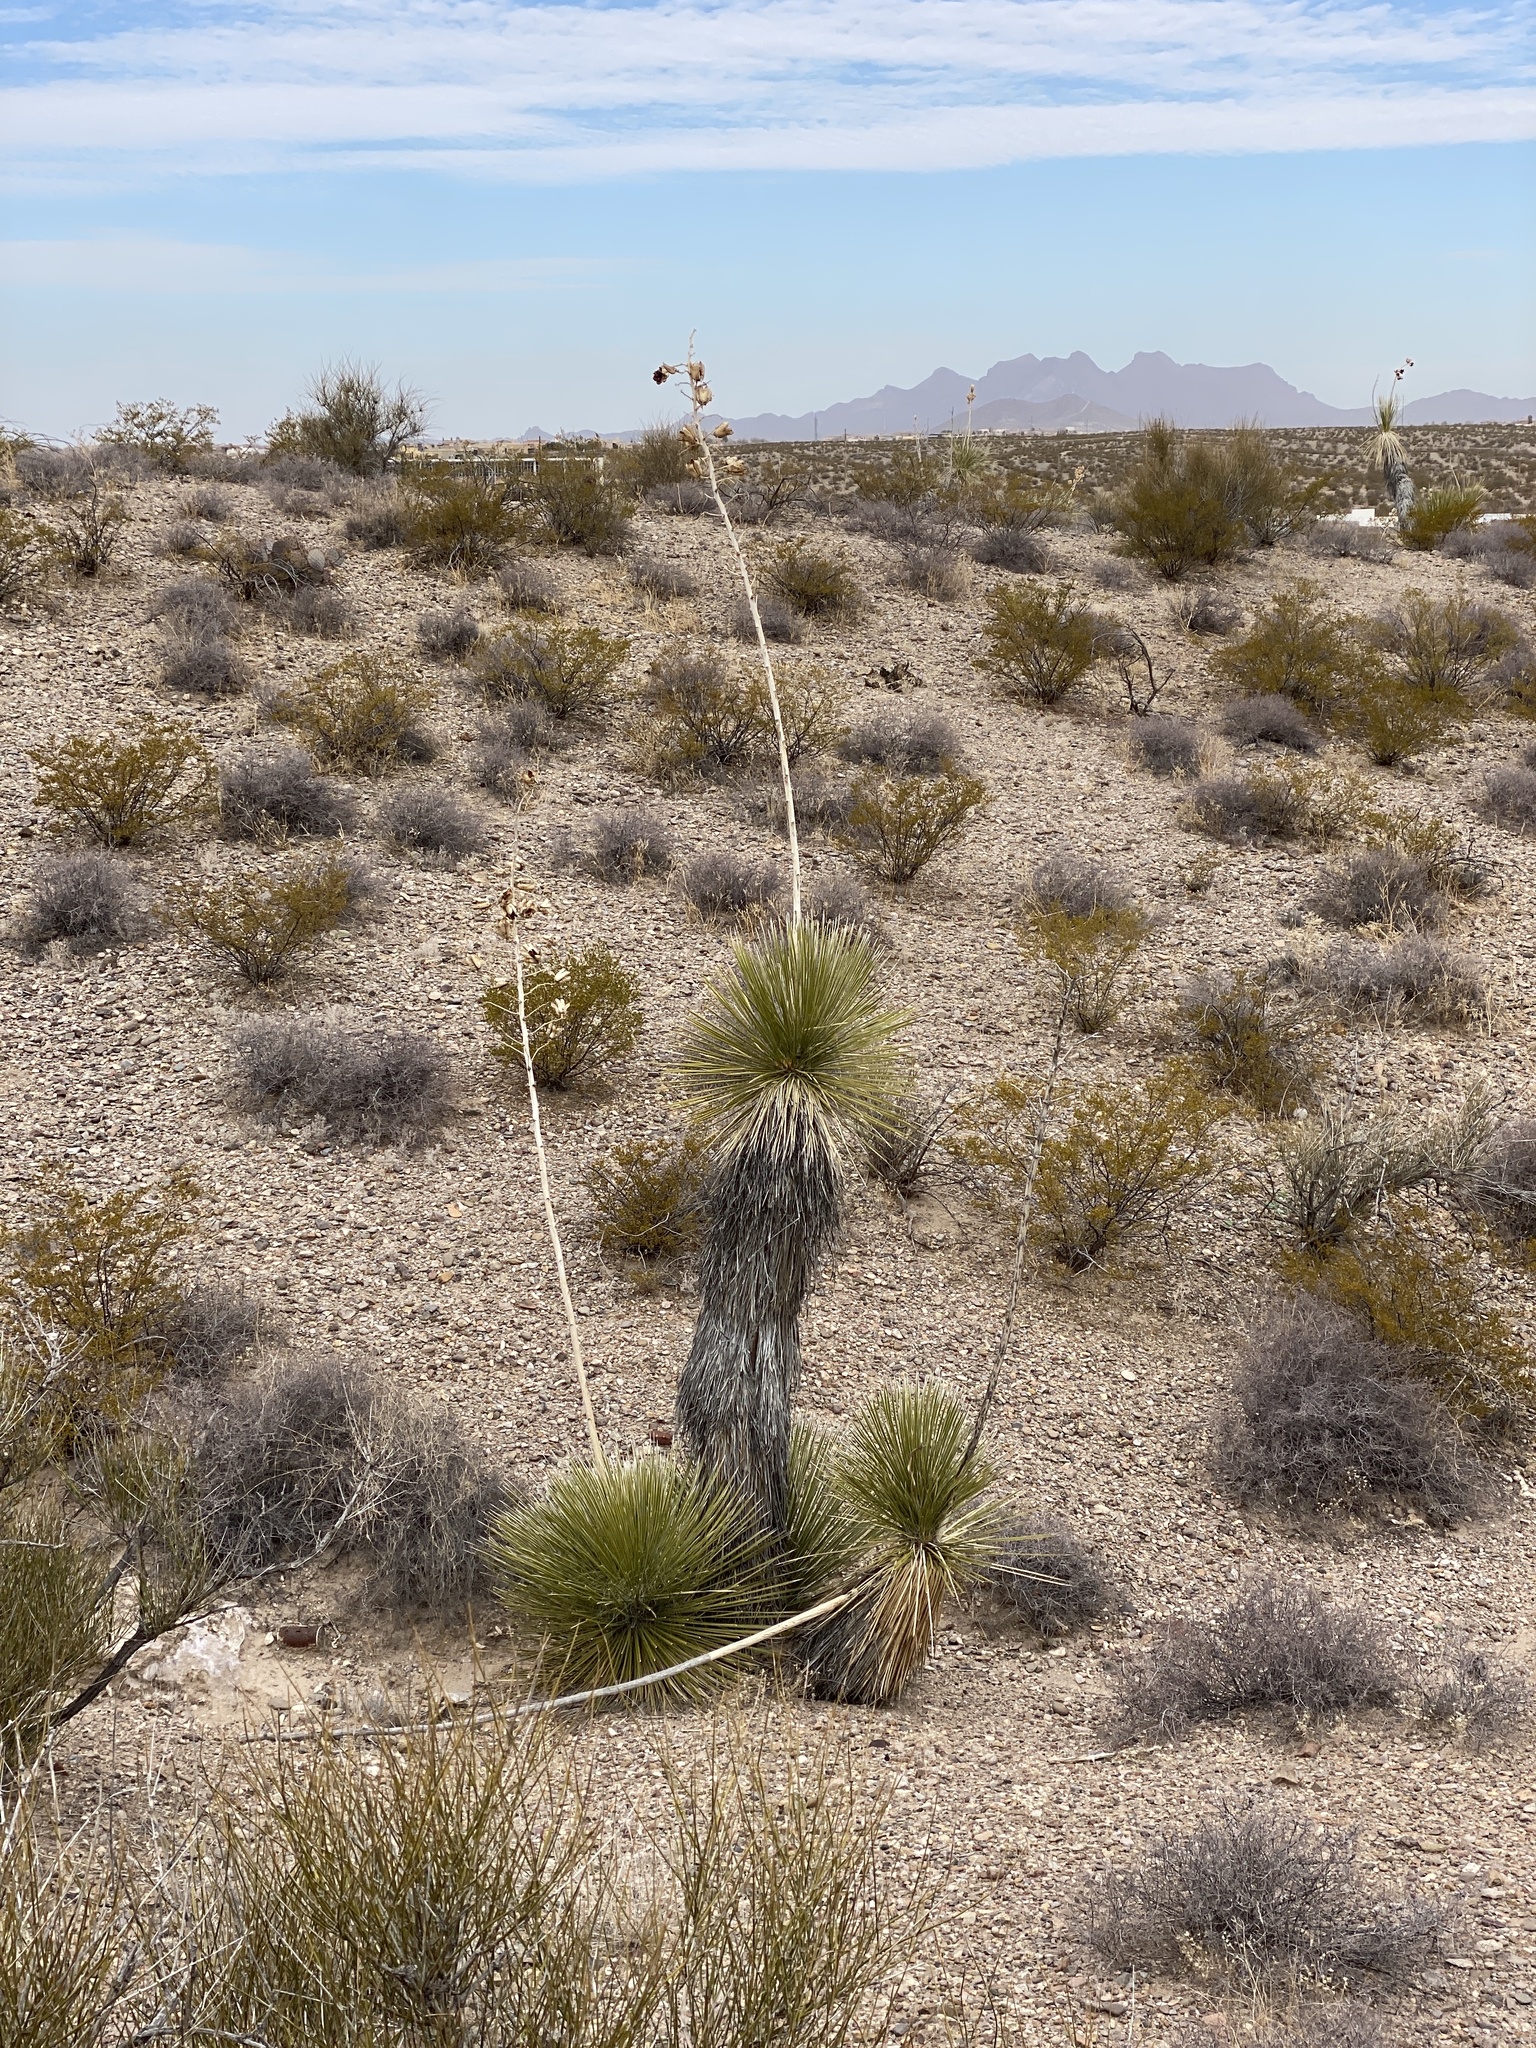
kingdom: Plantae
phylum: Tracheophyta
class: Liliopsida
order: Asparagales
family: Asparagaceae
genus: Yucca
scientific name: Yucca elata
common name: Palmella
